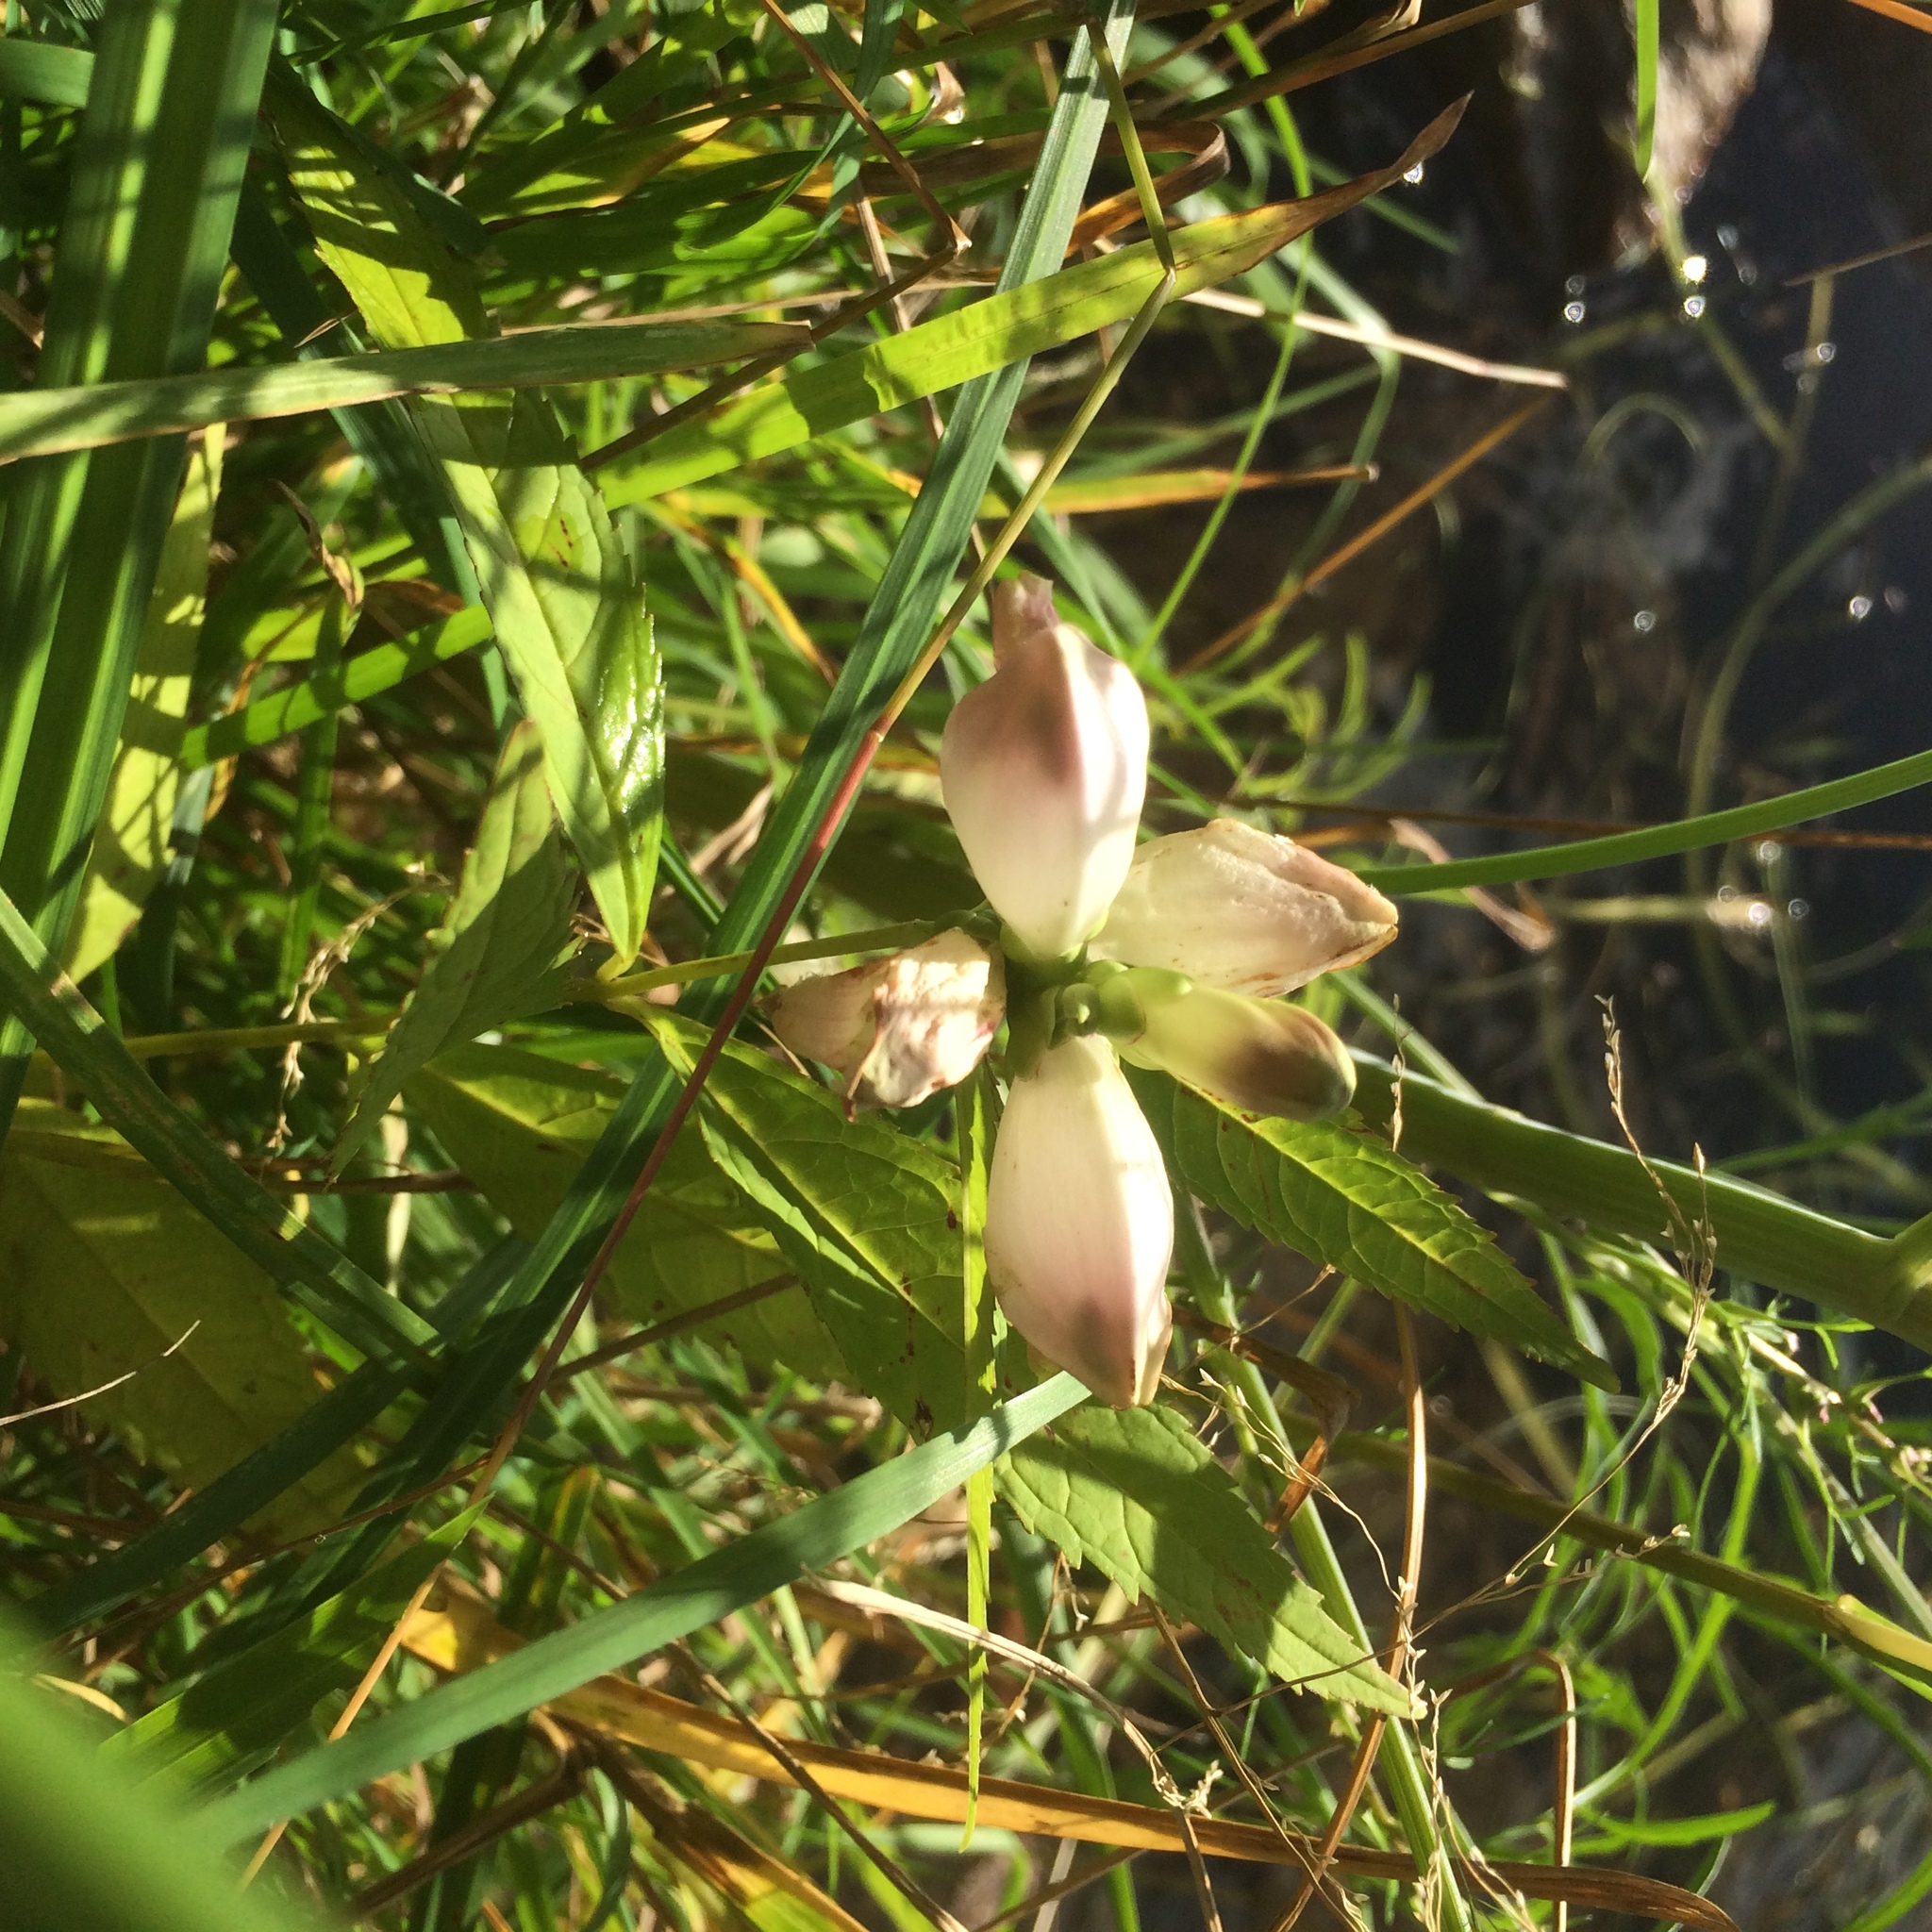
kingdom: Plantae
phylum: Tracheophyta
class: Magnoliopsida
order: Lamiales
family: Plantaginaceae
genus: Chelone
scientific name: Chelone glabra
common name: Snakehead
